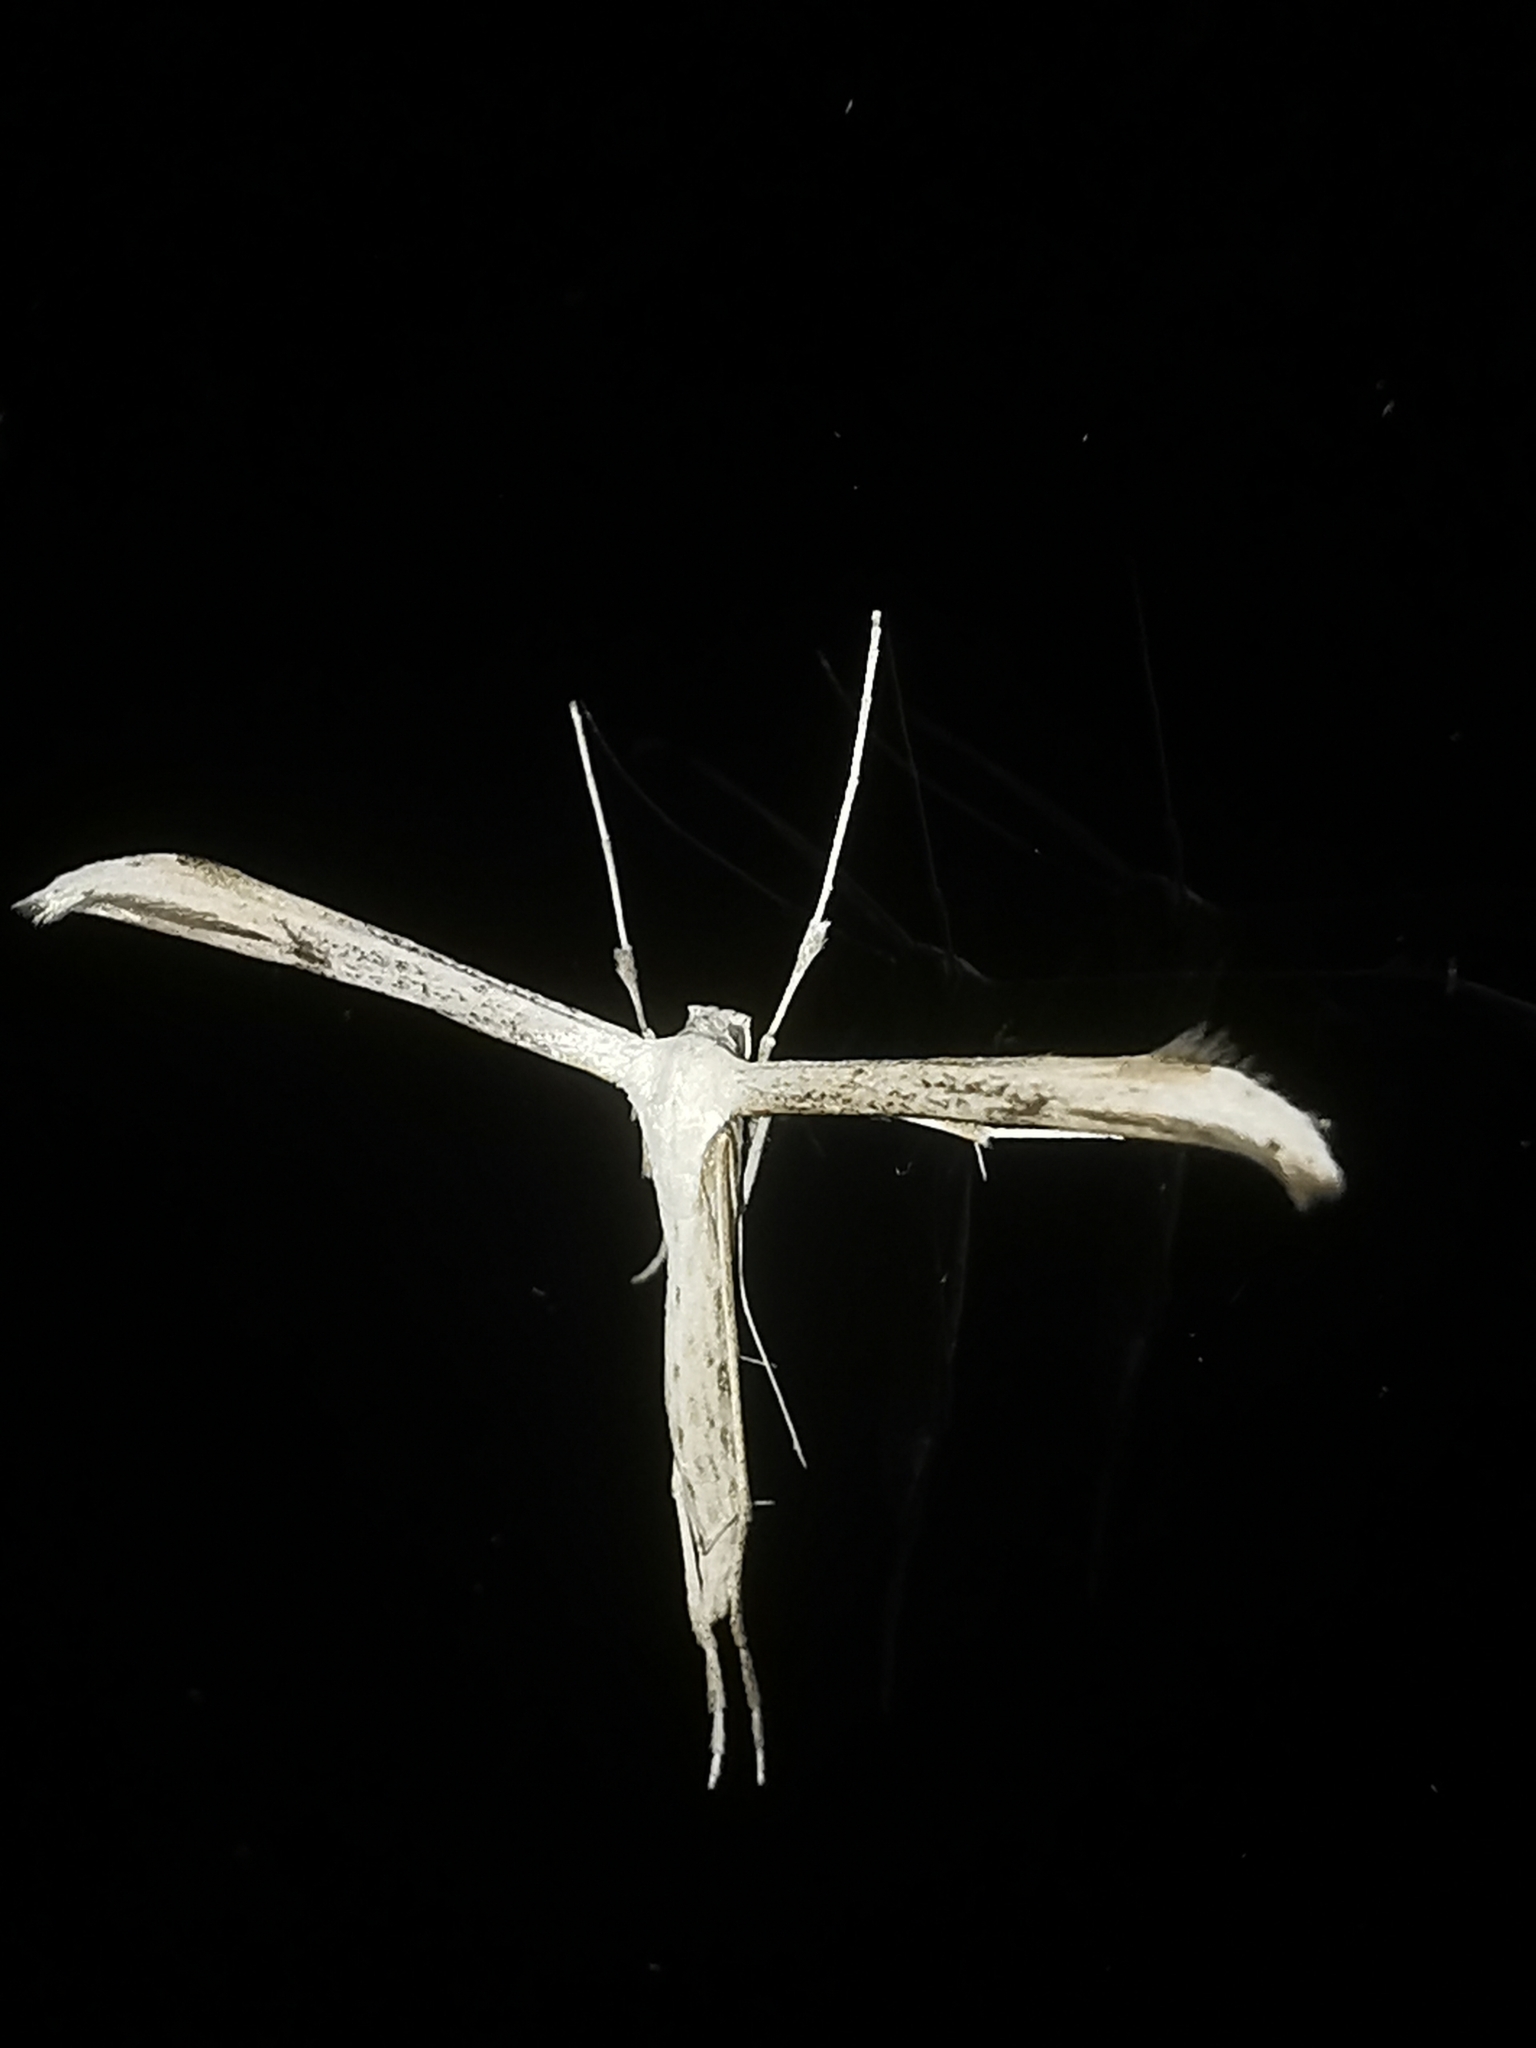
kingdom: Animalia
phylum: Arthropoda
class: Insecta
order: Lepidoptera
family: Pterophoridae
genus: Emmelina
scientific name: Emmelina monodactyla
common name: Common plume
